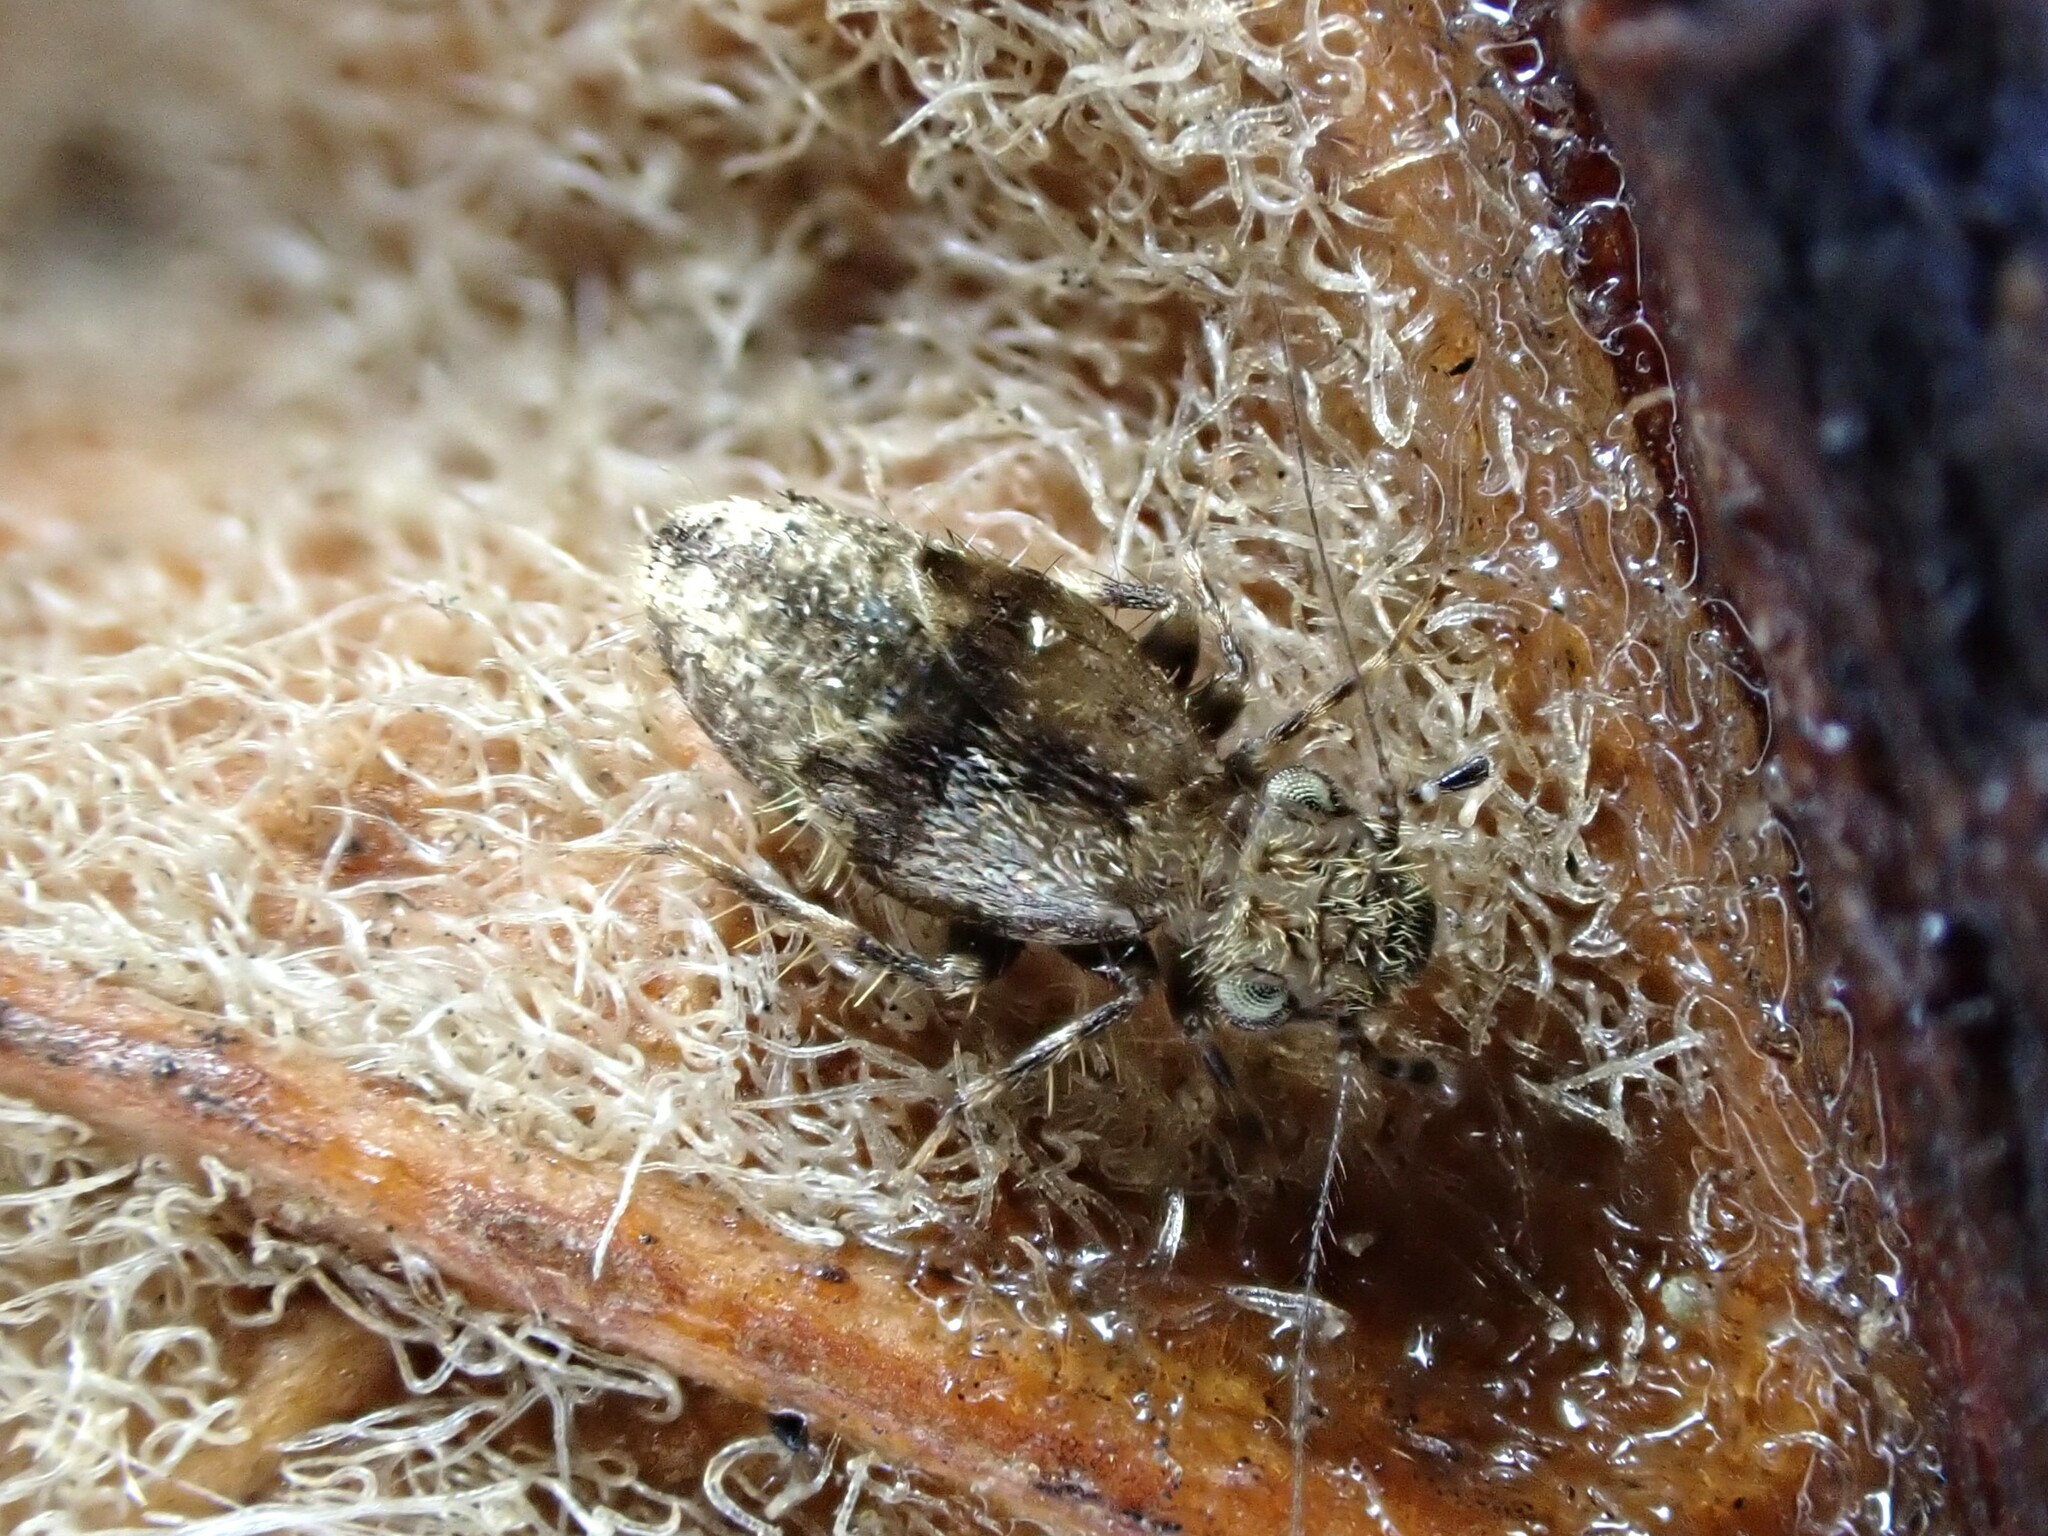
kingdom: Animalia
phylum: Arthropoda
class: Insecta
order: Psocodea
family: Lepidopsocidae
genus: Pteroxanium
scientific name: Pteroxanium kelloggi
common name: Bark lice
